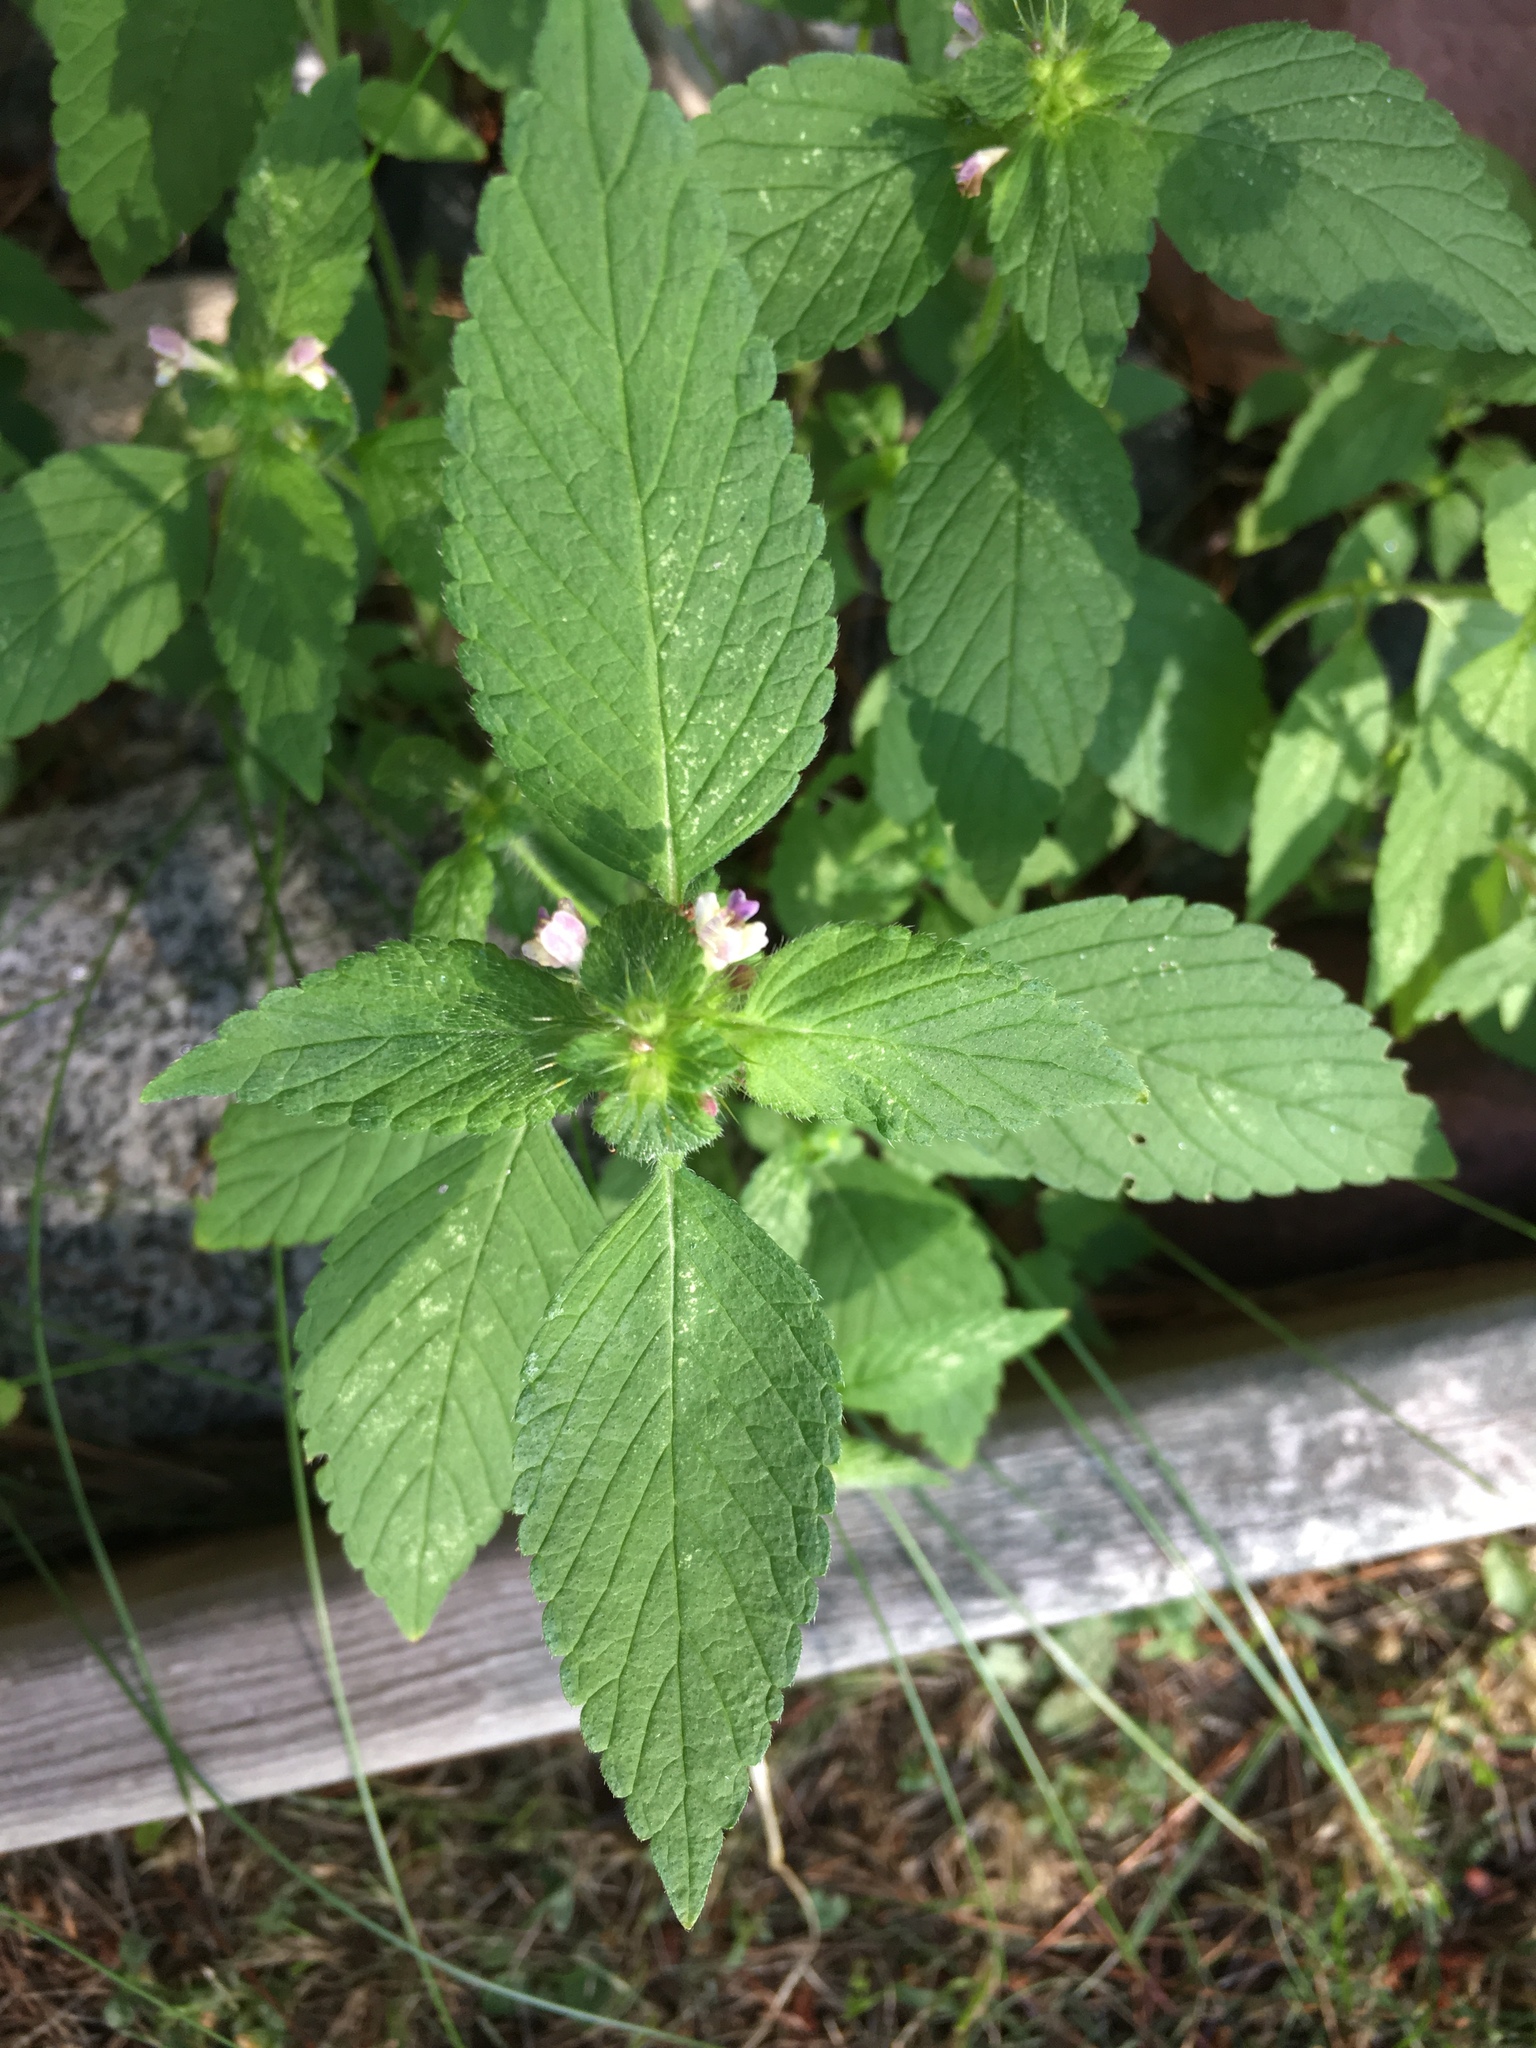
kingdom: Plantae
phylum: Tracheophyta
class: Magnoliopsida
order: Lamiales
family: Lamiaceae
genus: Galeopsis
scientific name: Galeopsis tetrahit
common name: Common hemp-nettle
